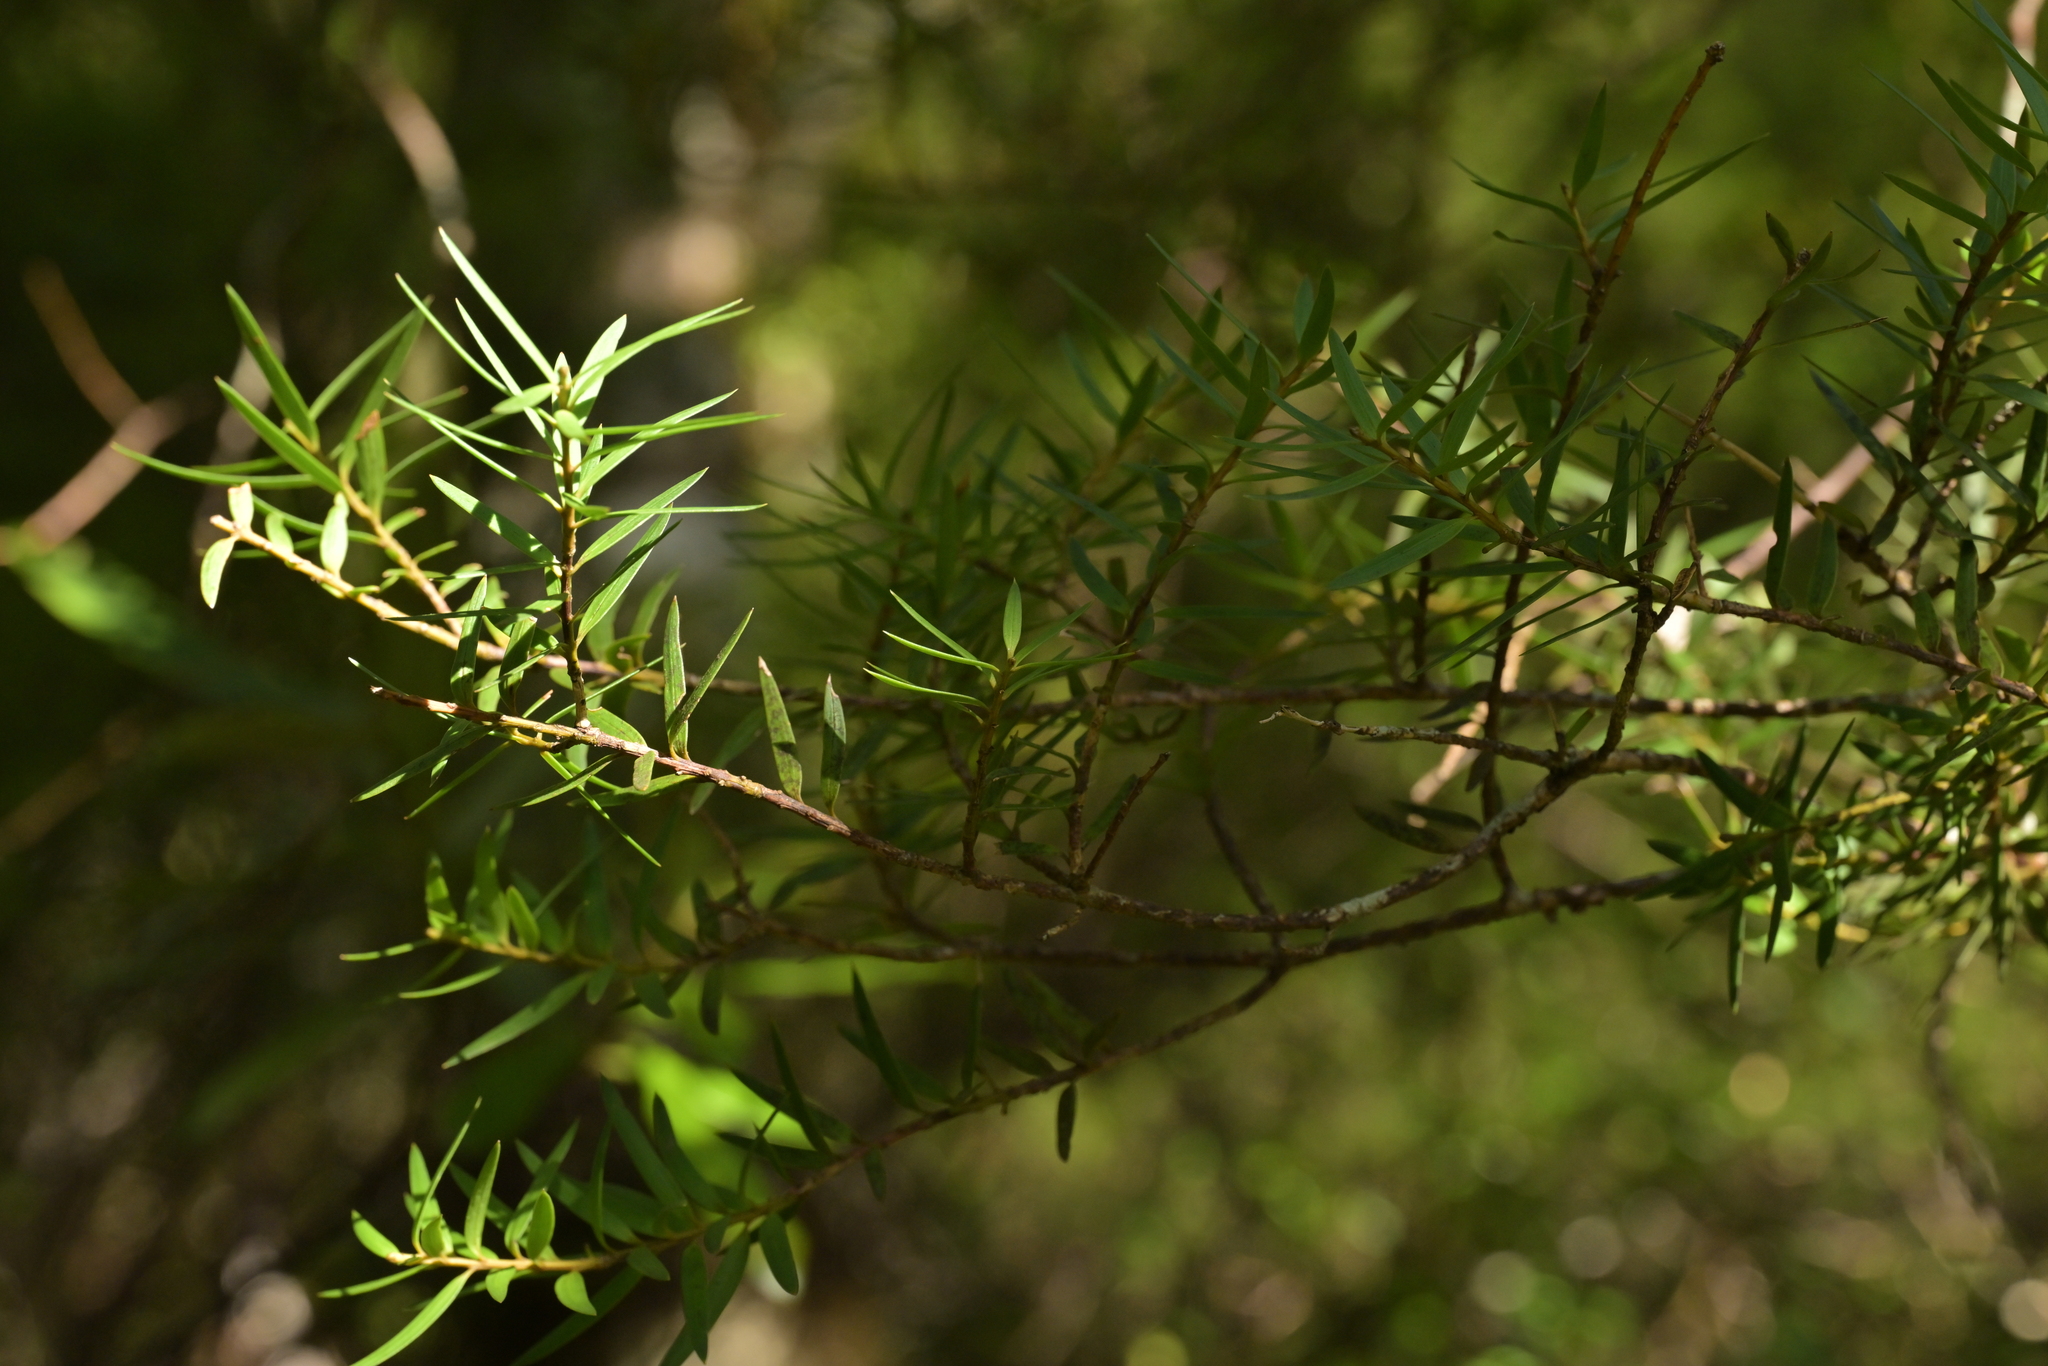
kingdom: Plantae
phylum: Tracheophyta
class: Pinopsida
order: Pinales
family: Podocarpaceae
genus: Podocarpus
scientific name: Podocarpus laetus
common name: Hall's totara
